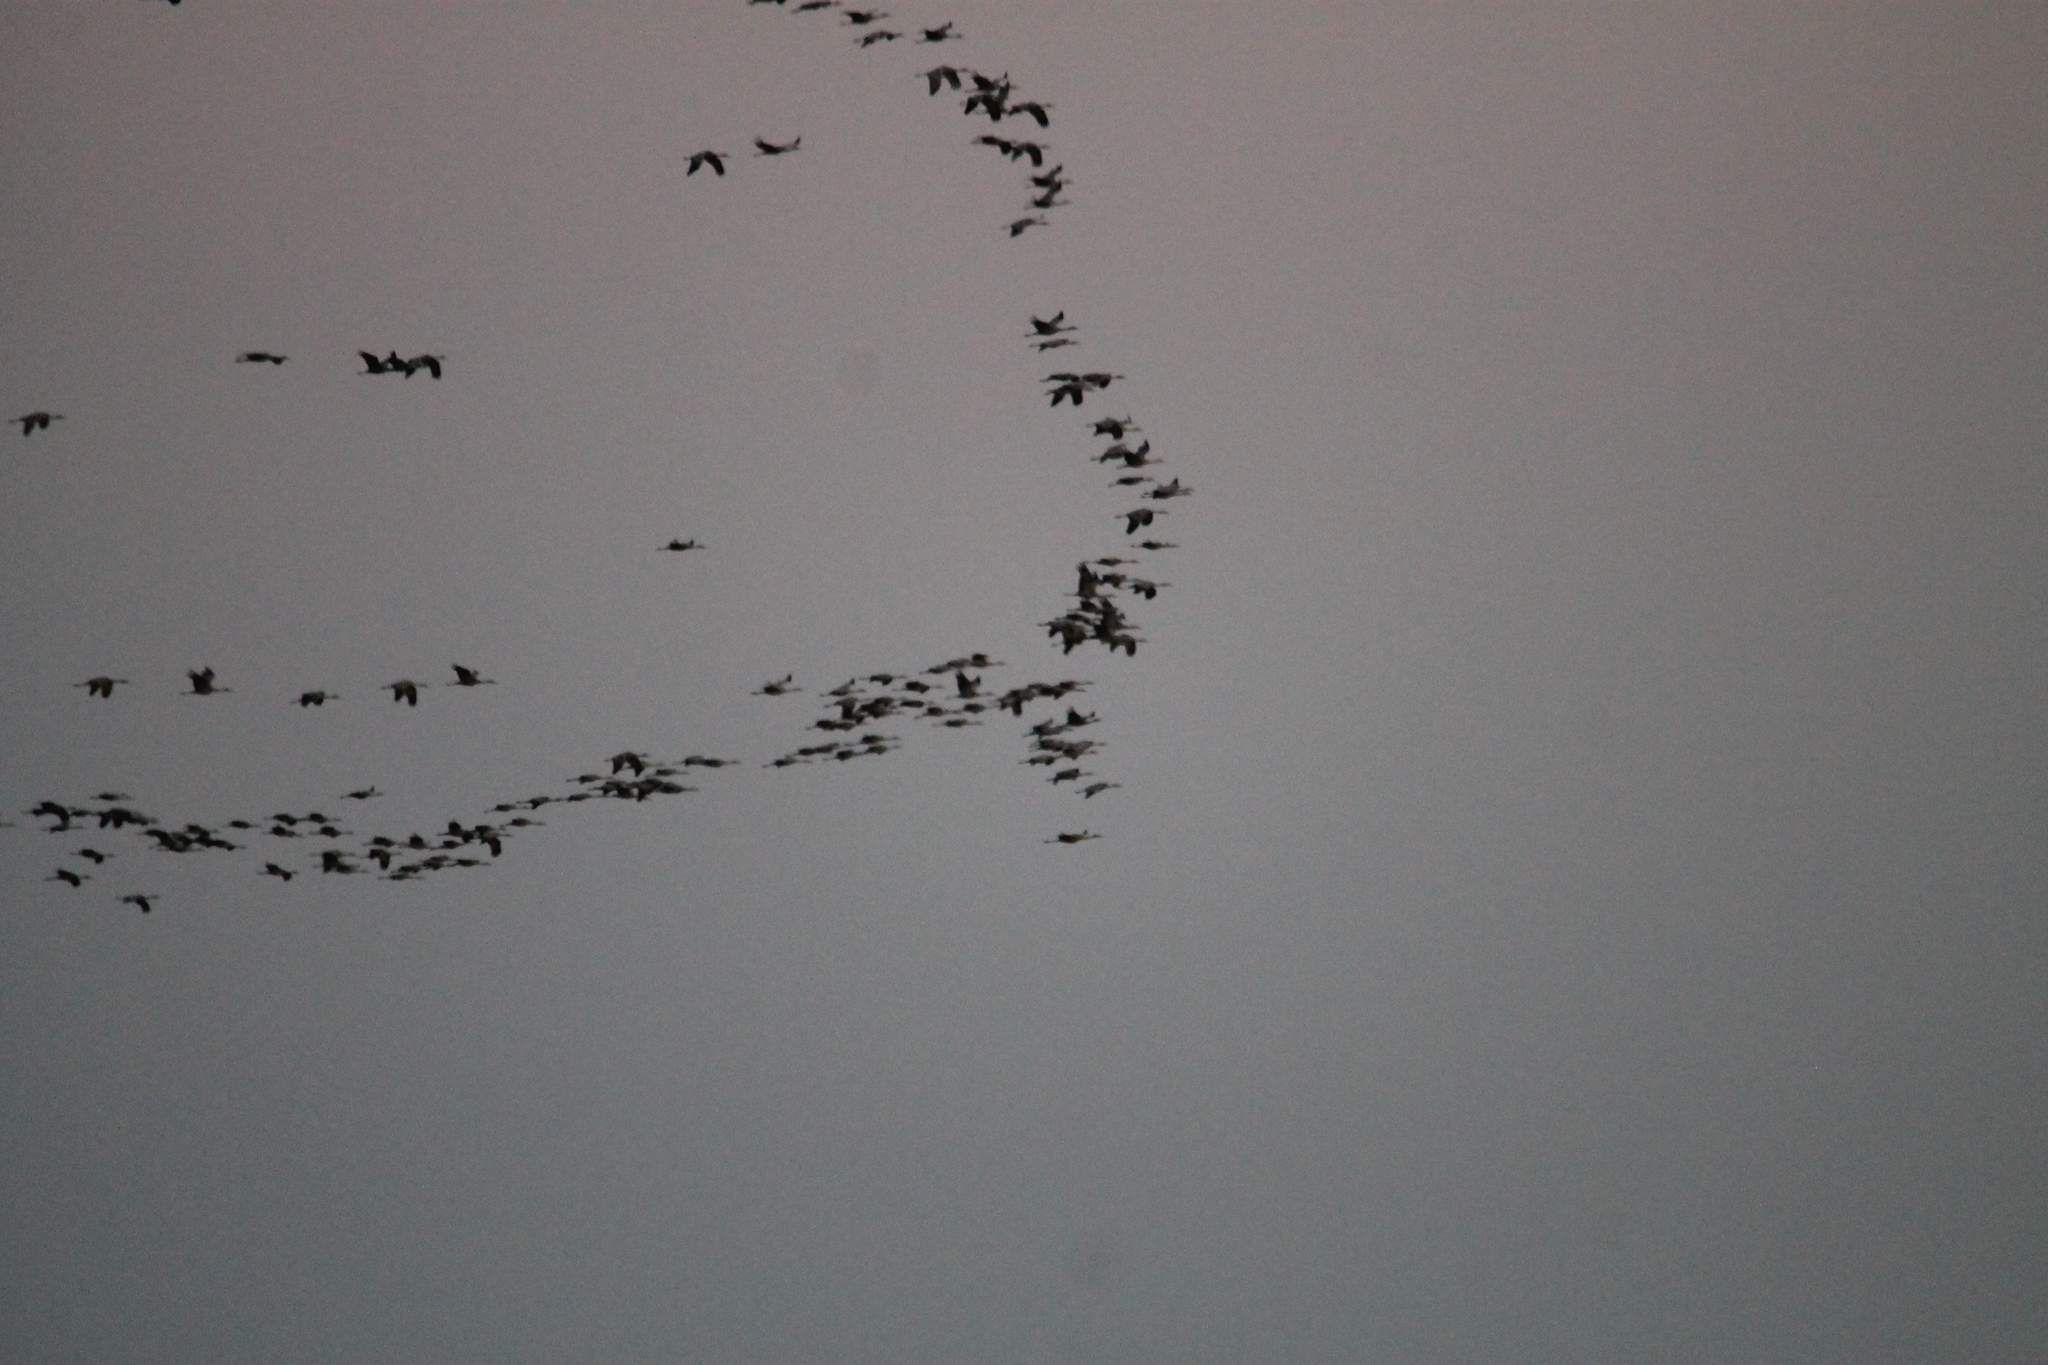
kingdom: Animalia
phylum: Chordata
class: Aves
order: Gruiformes
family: Gruidae
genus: Grus
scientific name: Grus canadensis
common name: Sandhill crane
